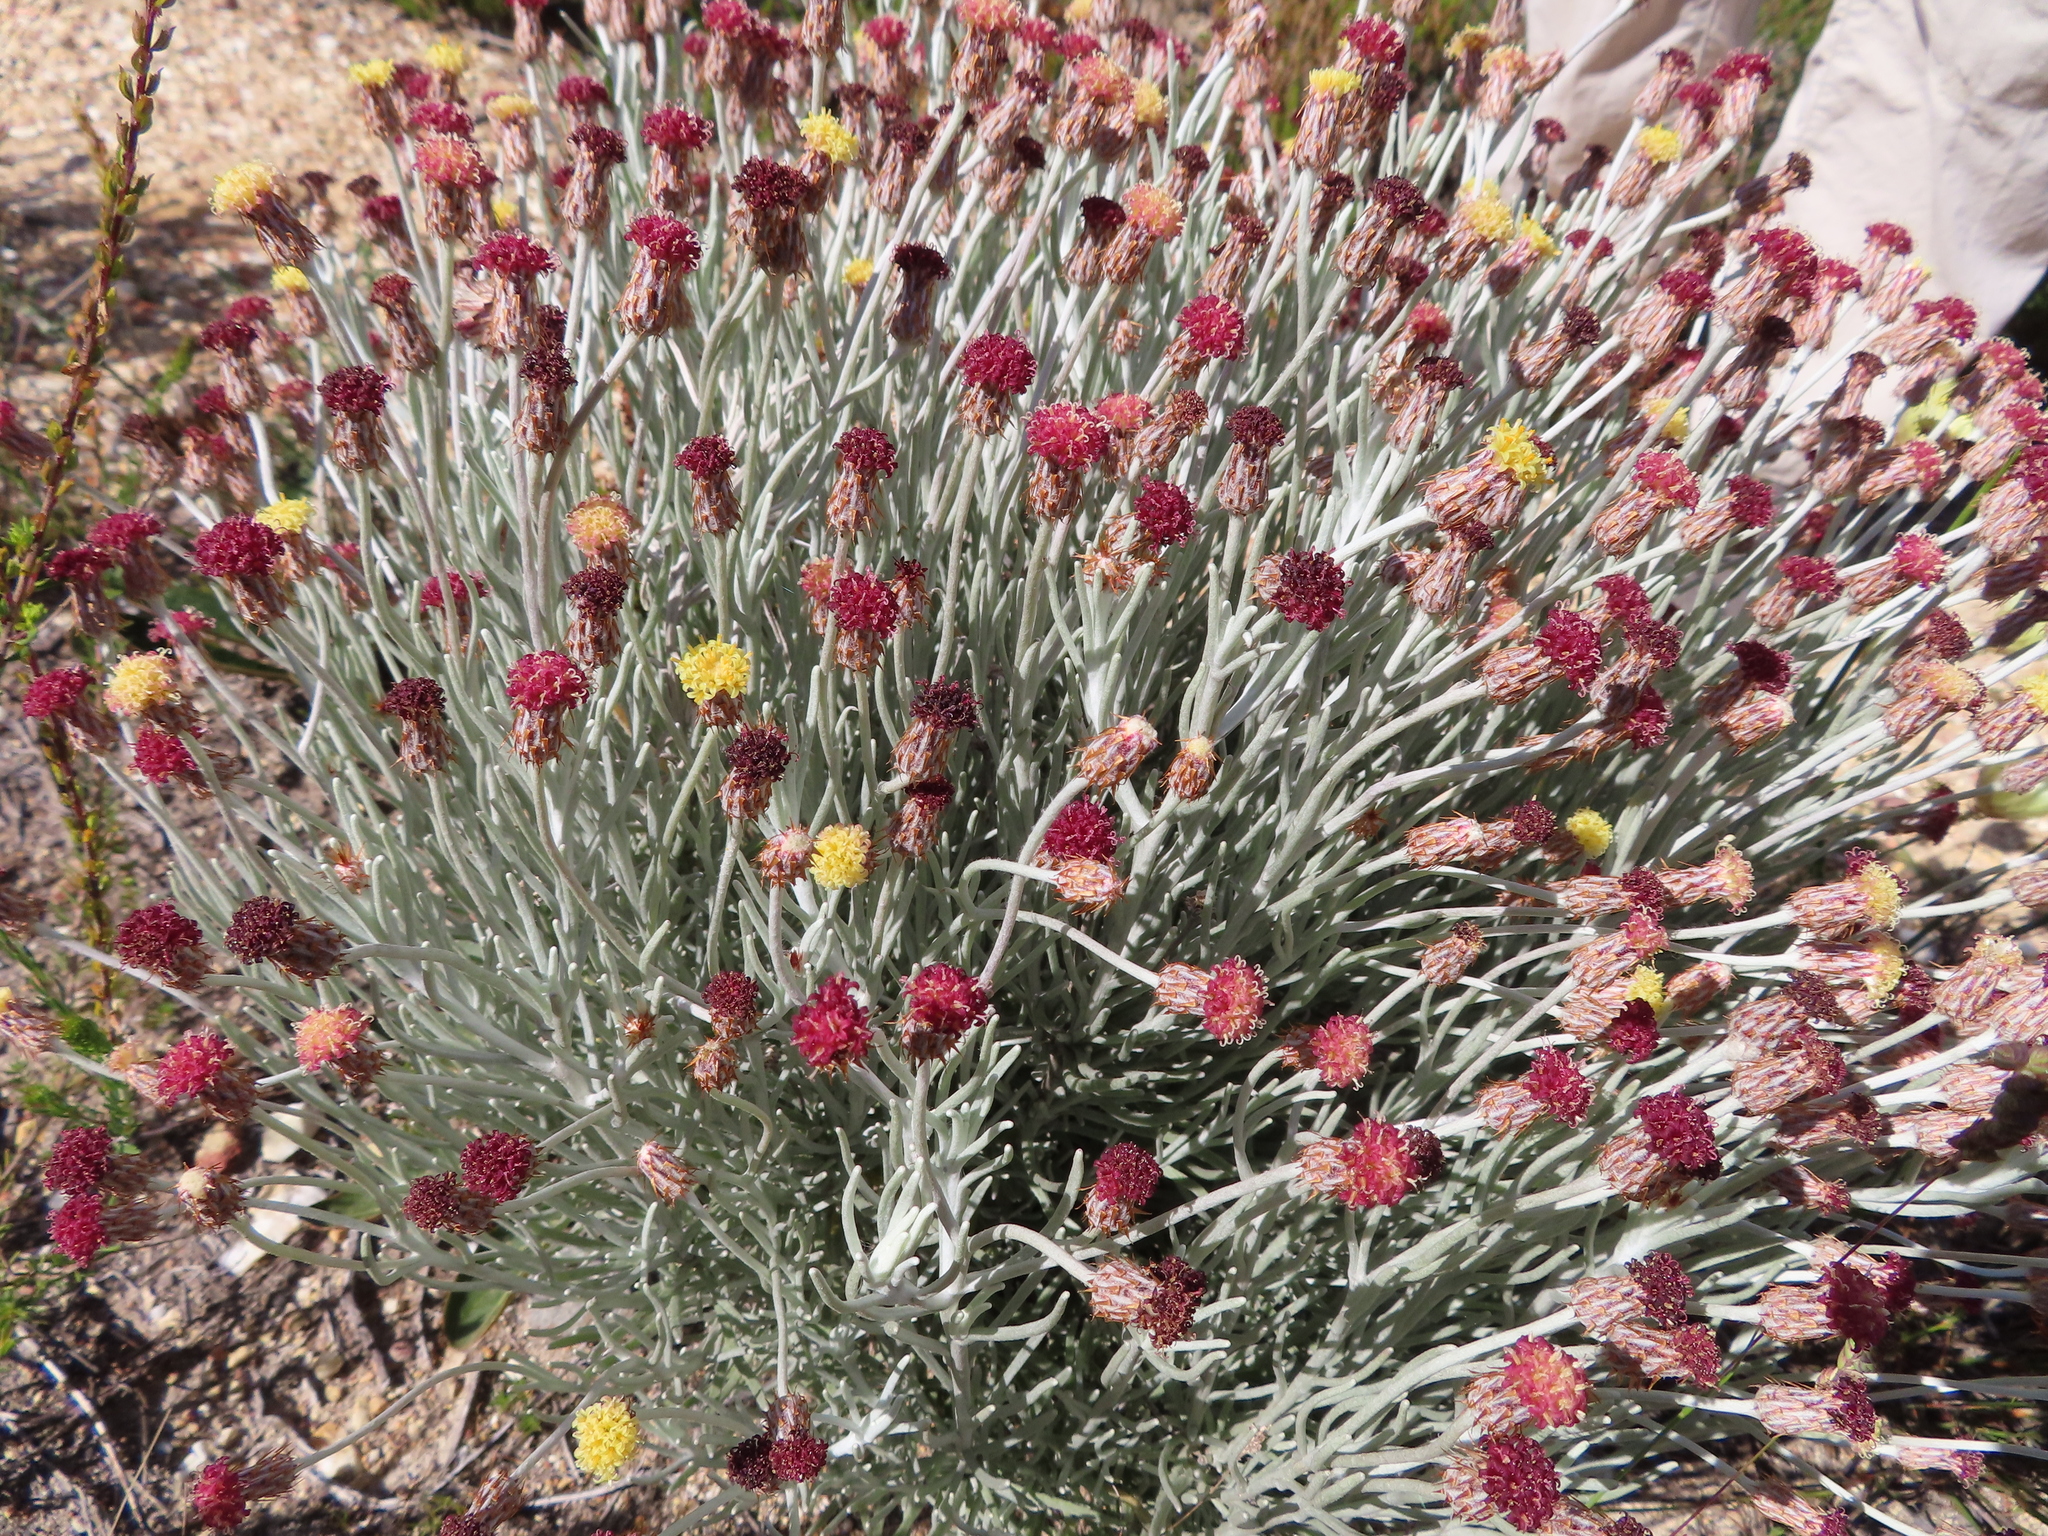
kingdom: Plantae
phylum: Tracheophyta
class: Magnoliopsida
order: Asterales
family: Asteraceae
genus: Syncarpha
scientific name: Syncarpha gnaphaloides
